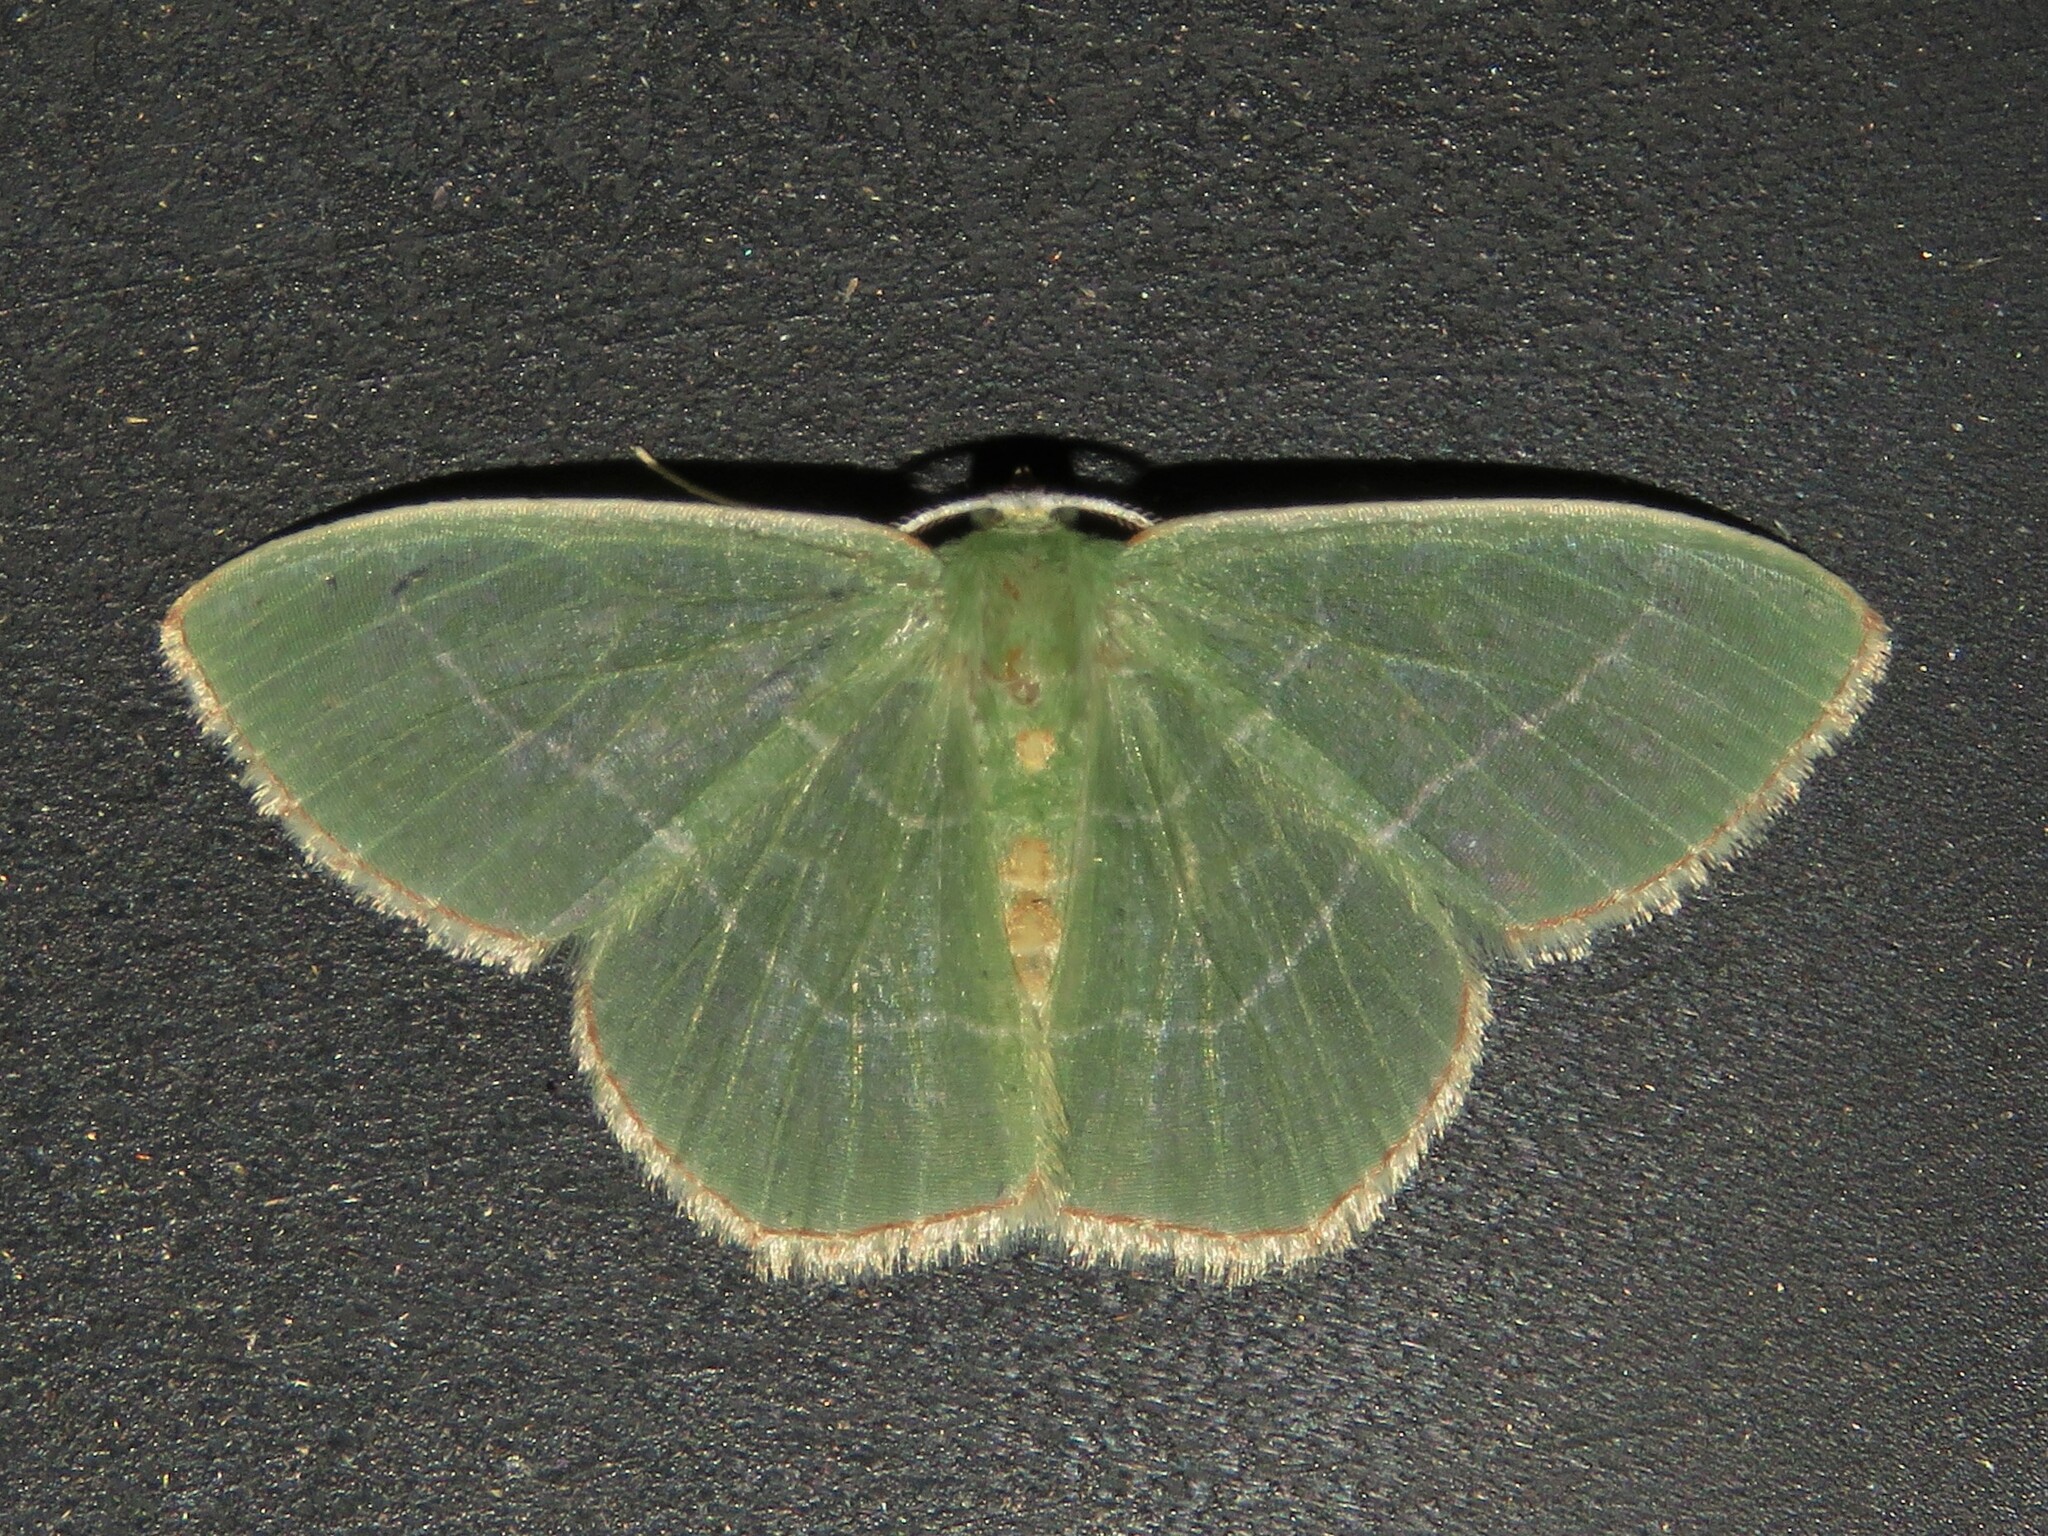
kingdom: Animalia
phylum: Arthropoda
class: Insecta
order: Lepidoptera
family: Geometridae
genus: Nemoria
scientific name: Nemoria bistriaria
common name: Red-fringed emerald
